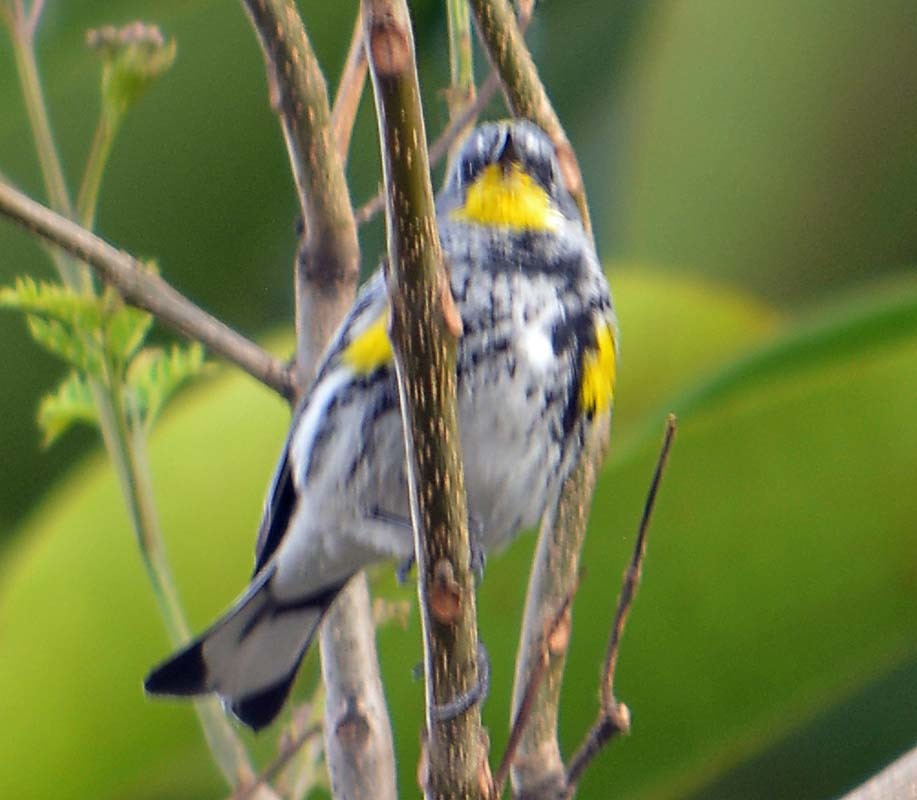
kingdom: Animalia
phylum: Chordata
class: Aves
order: Passeriformes
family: Parulidae
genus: Setophaga
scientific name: Setophaga auduboni
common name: Audubon's warbler
